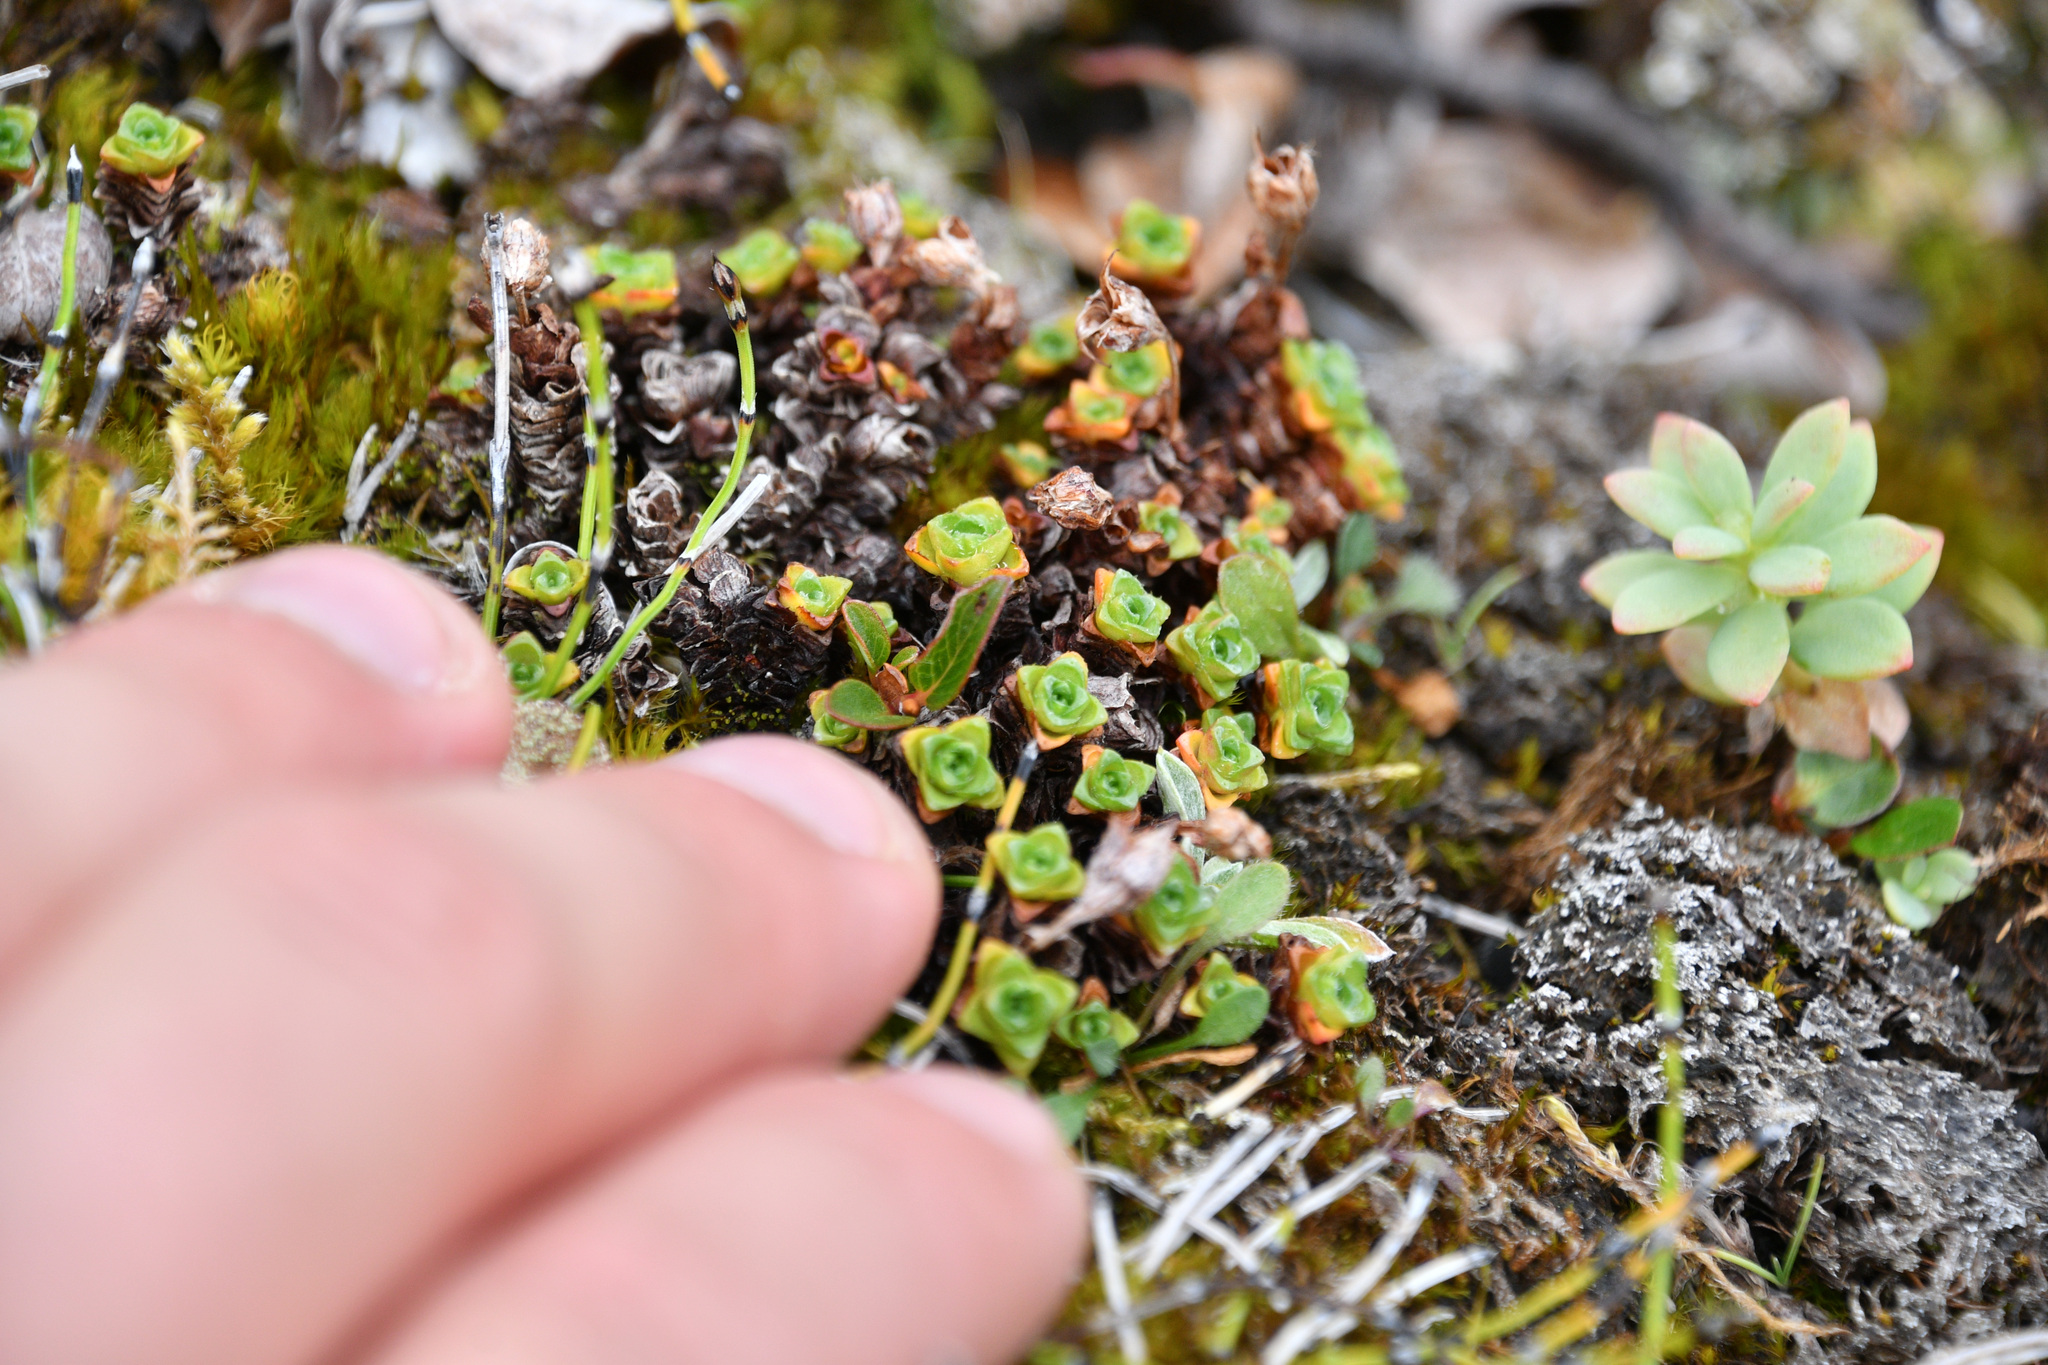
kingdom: Plantae
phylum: Tracheophyta
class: Magnoliopsida
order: Saxifragales
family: Saxifragaceae
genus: Saxifraga
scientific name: Saxifraga oppositifolia
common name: Purple saxifrage
